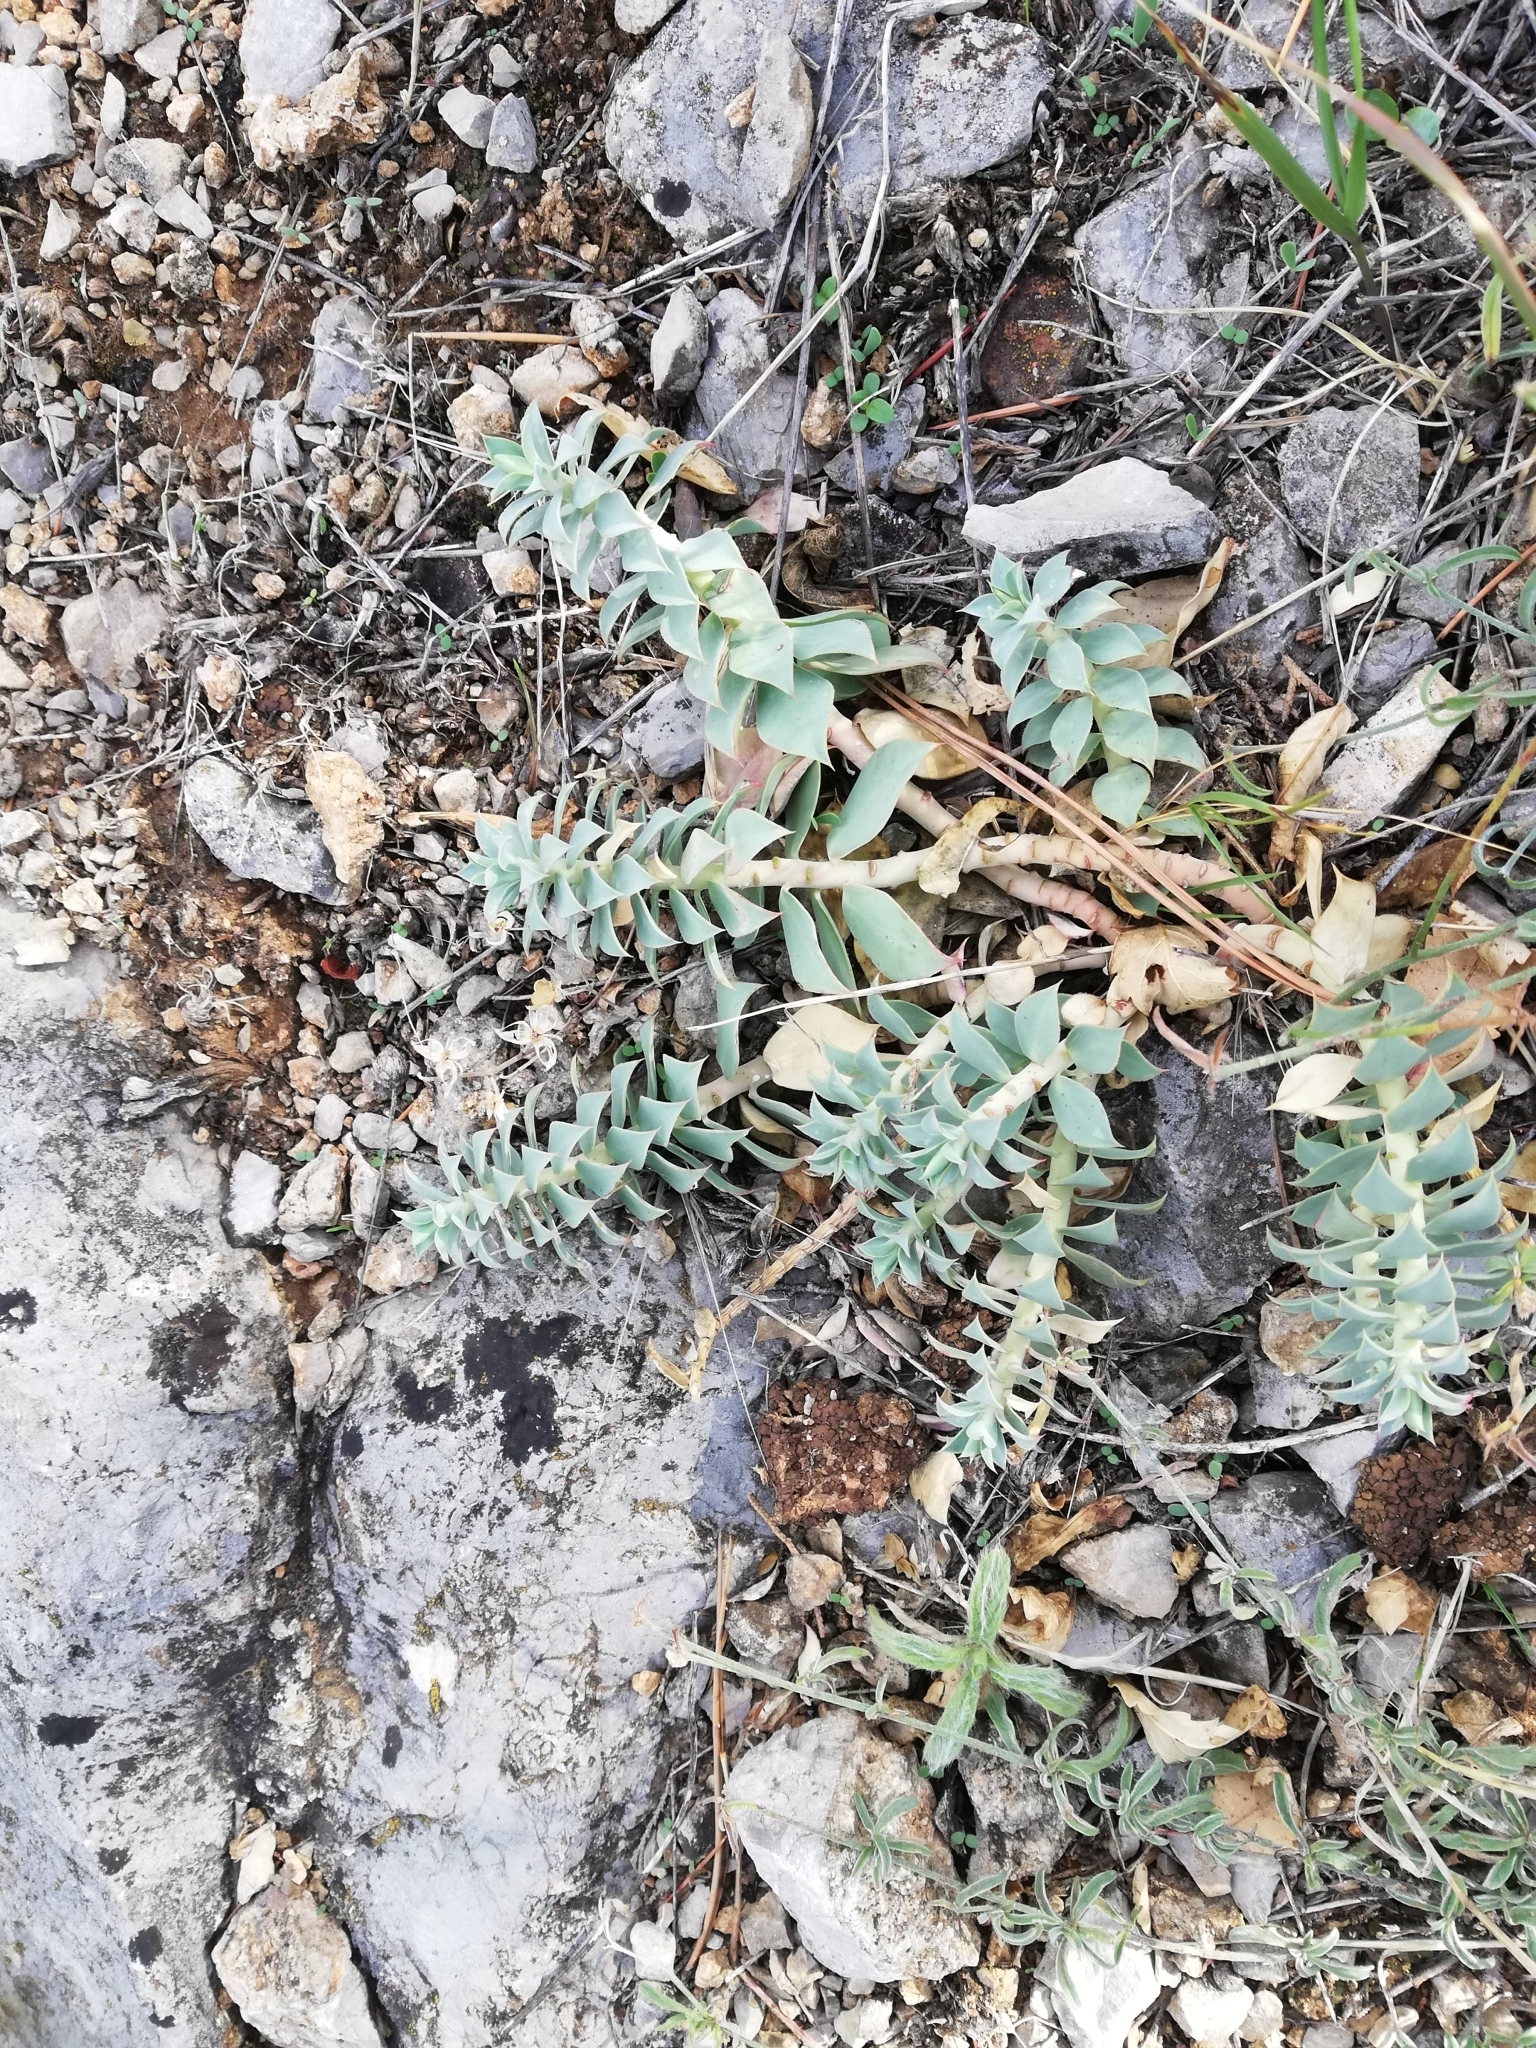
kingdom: Plantae
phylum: Tracheophyta
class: Magnoliopsida
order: Malpighiales
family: Euphorbiaceae
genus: Euphorbia
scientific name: Euphorbia myrsinites
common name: Myrtle spurge
